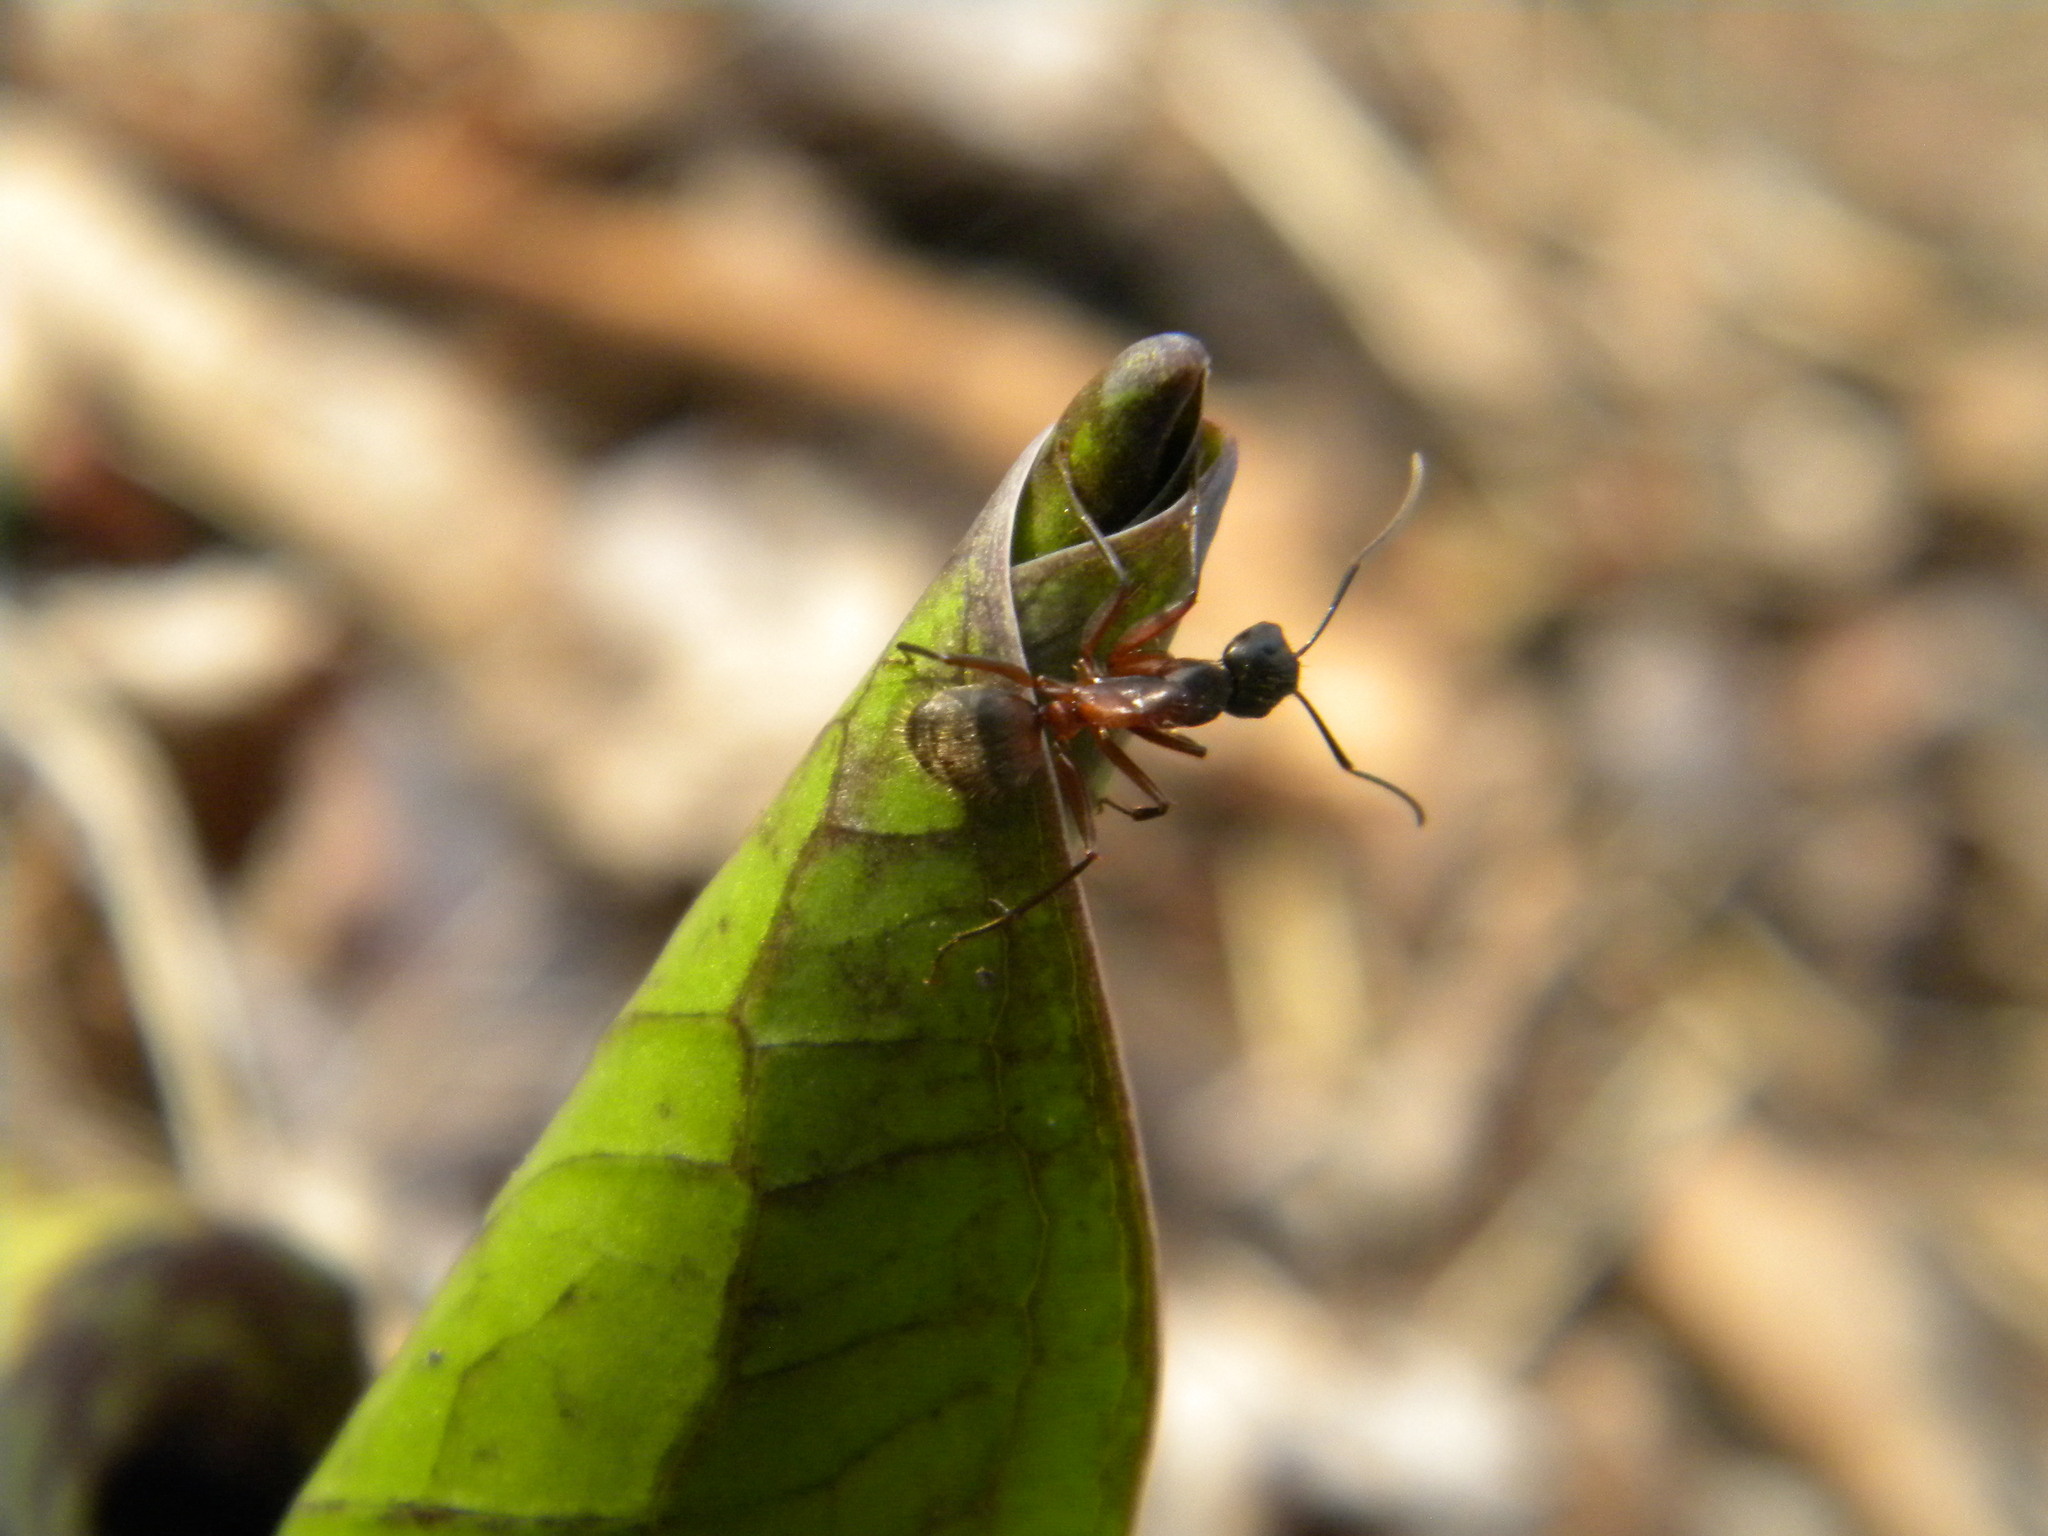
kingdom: Animalia
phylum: Arthropoda
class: Insecta
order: Hymenoptera
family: Formicidae
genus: Camponotus
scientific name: Camponotus chromaiodes
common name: Red carpenter ant
